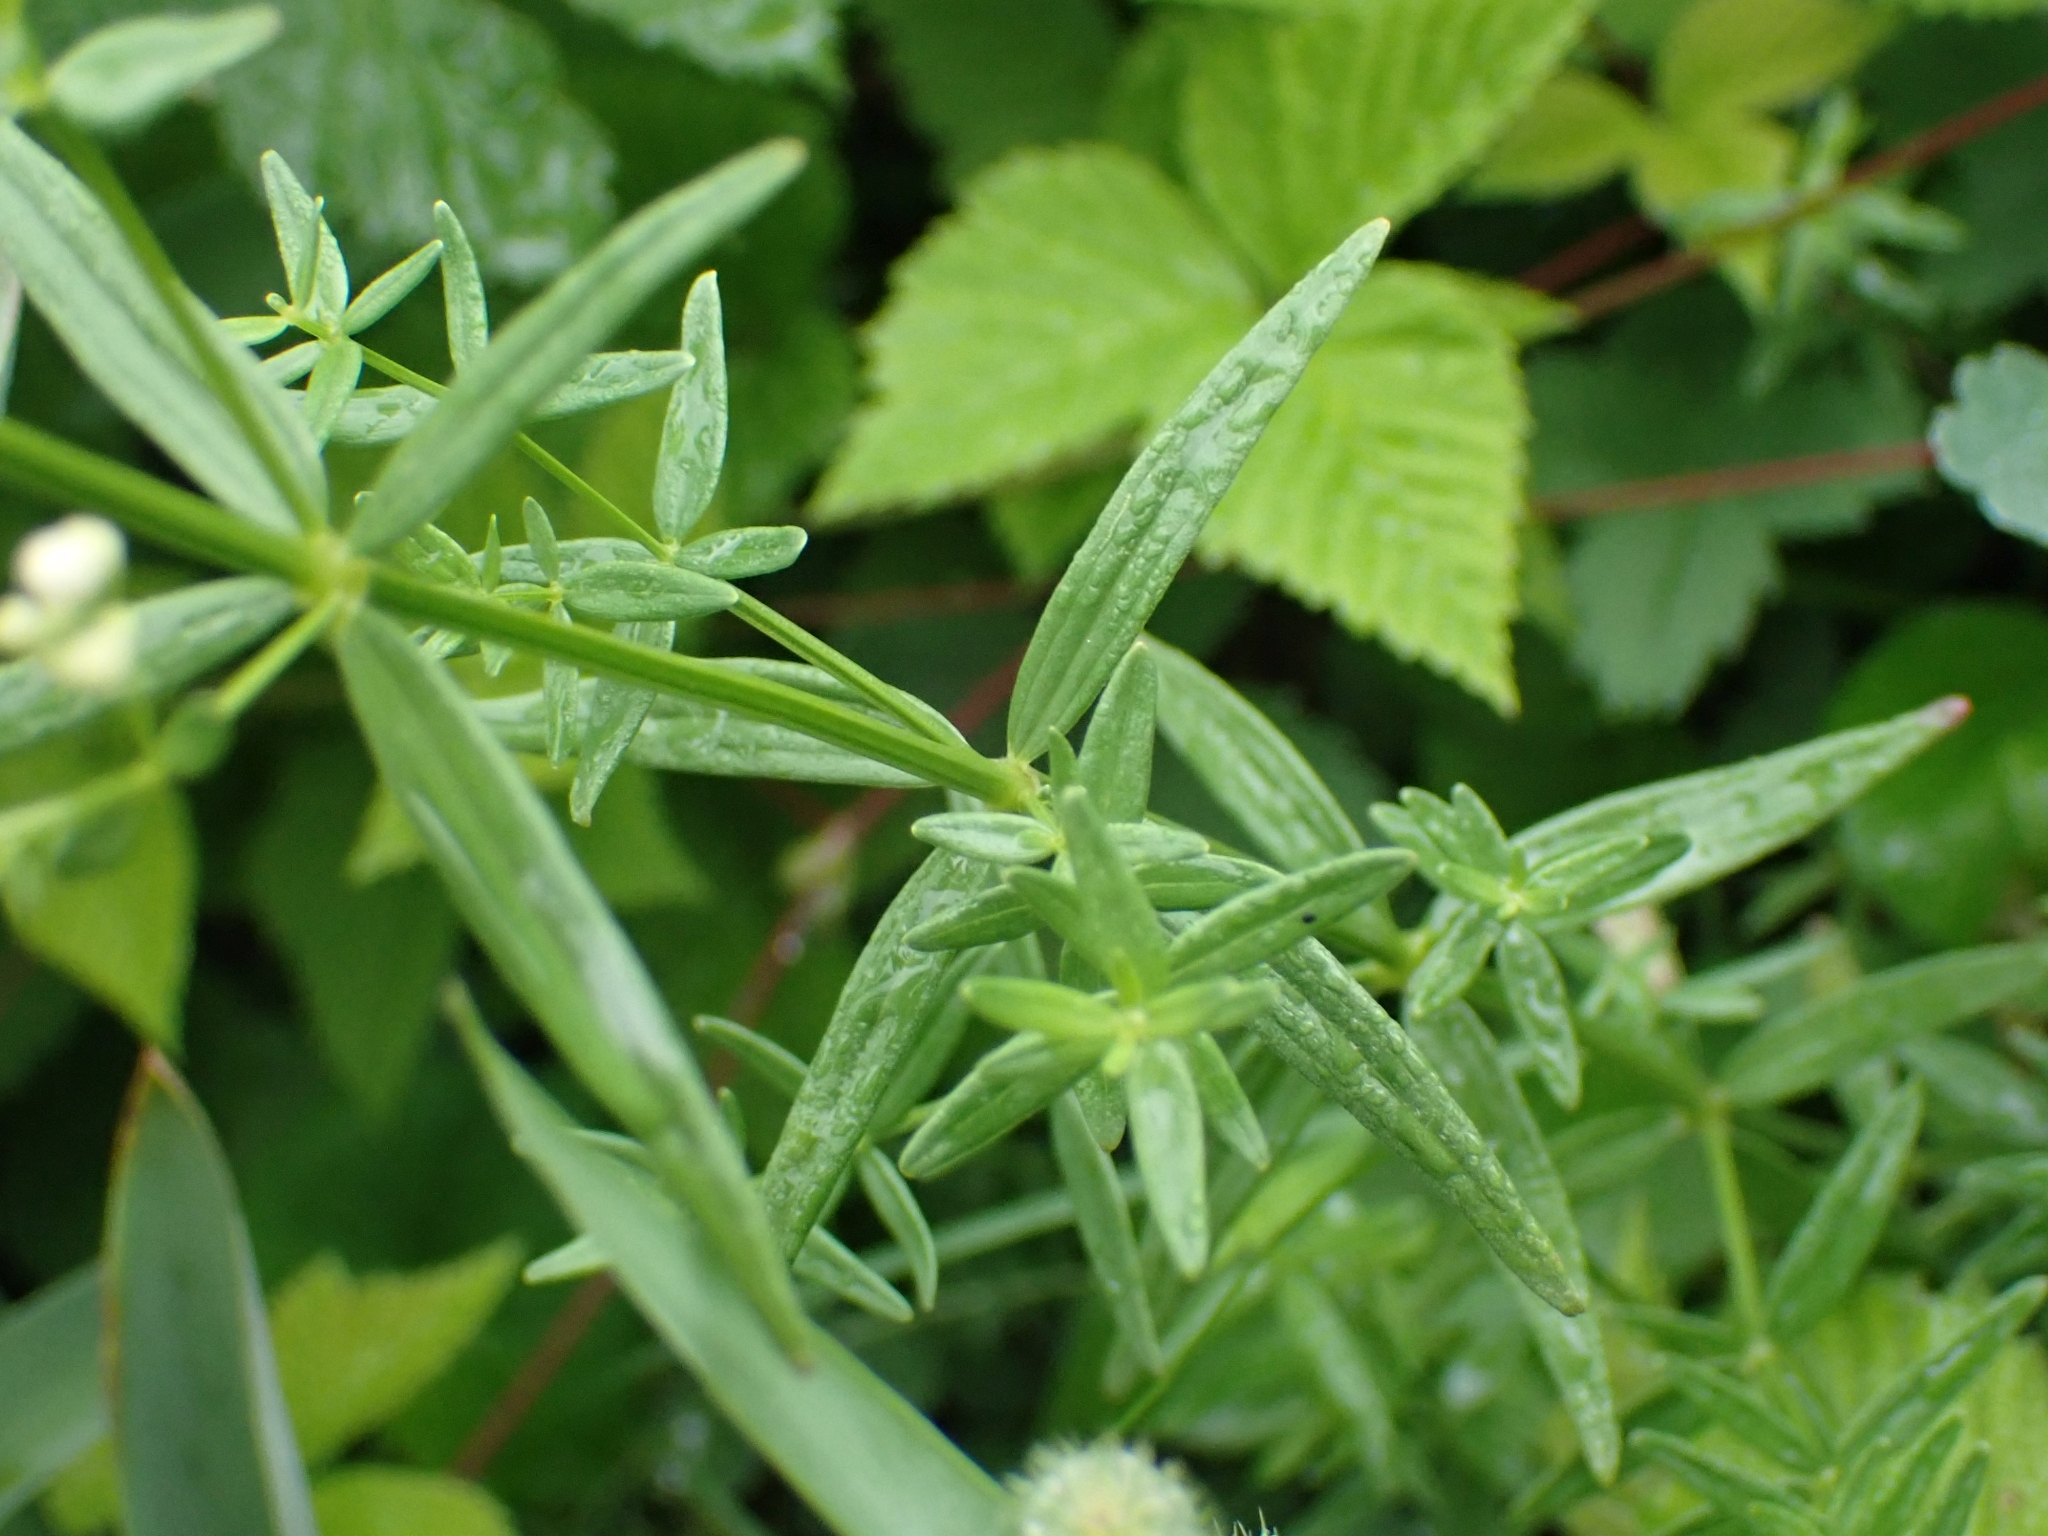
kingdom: Plantae
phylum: Tracheophyta
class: Magnoliopsida
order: Gentianales
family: Rubiaceae
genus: Galium
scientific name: Galium boreale
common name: Northern bedstraw
